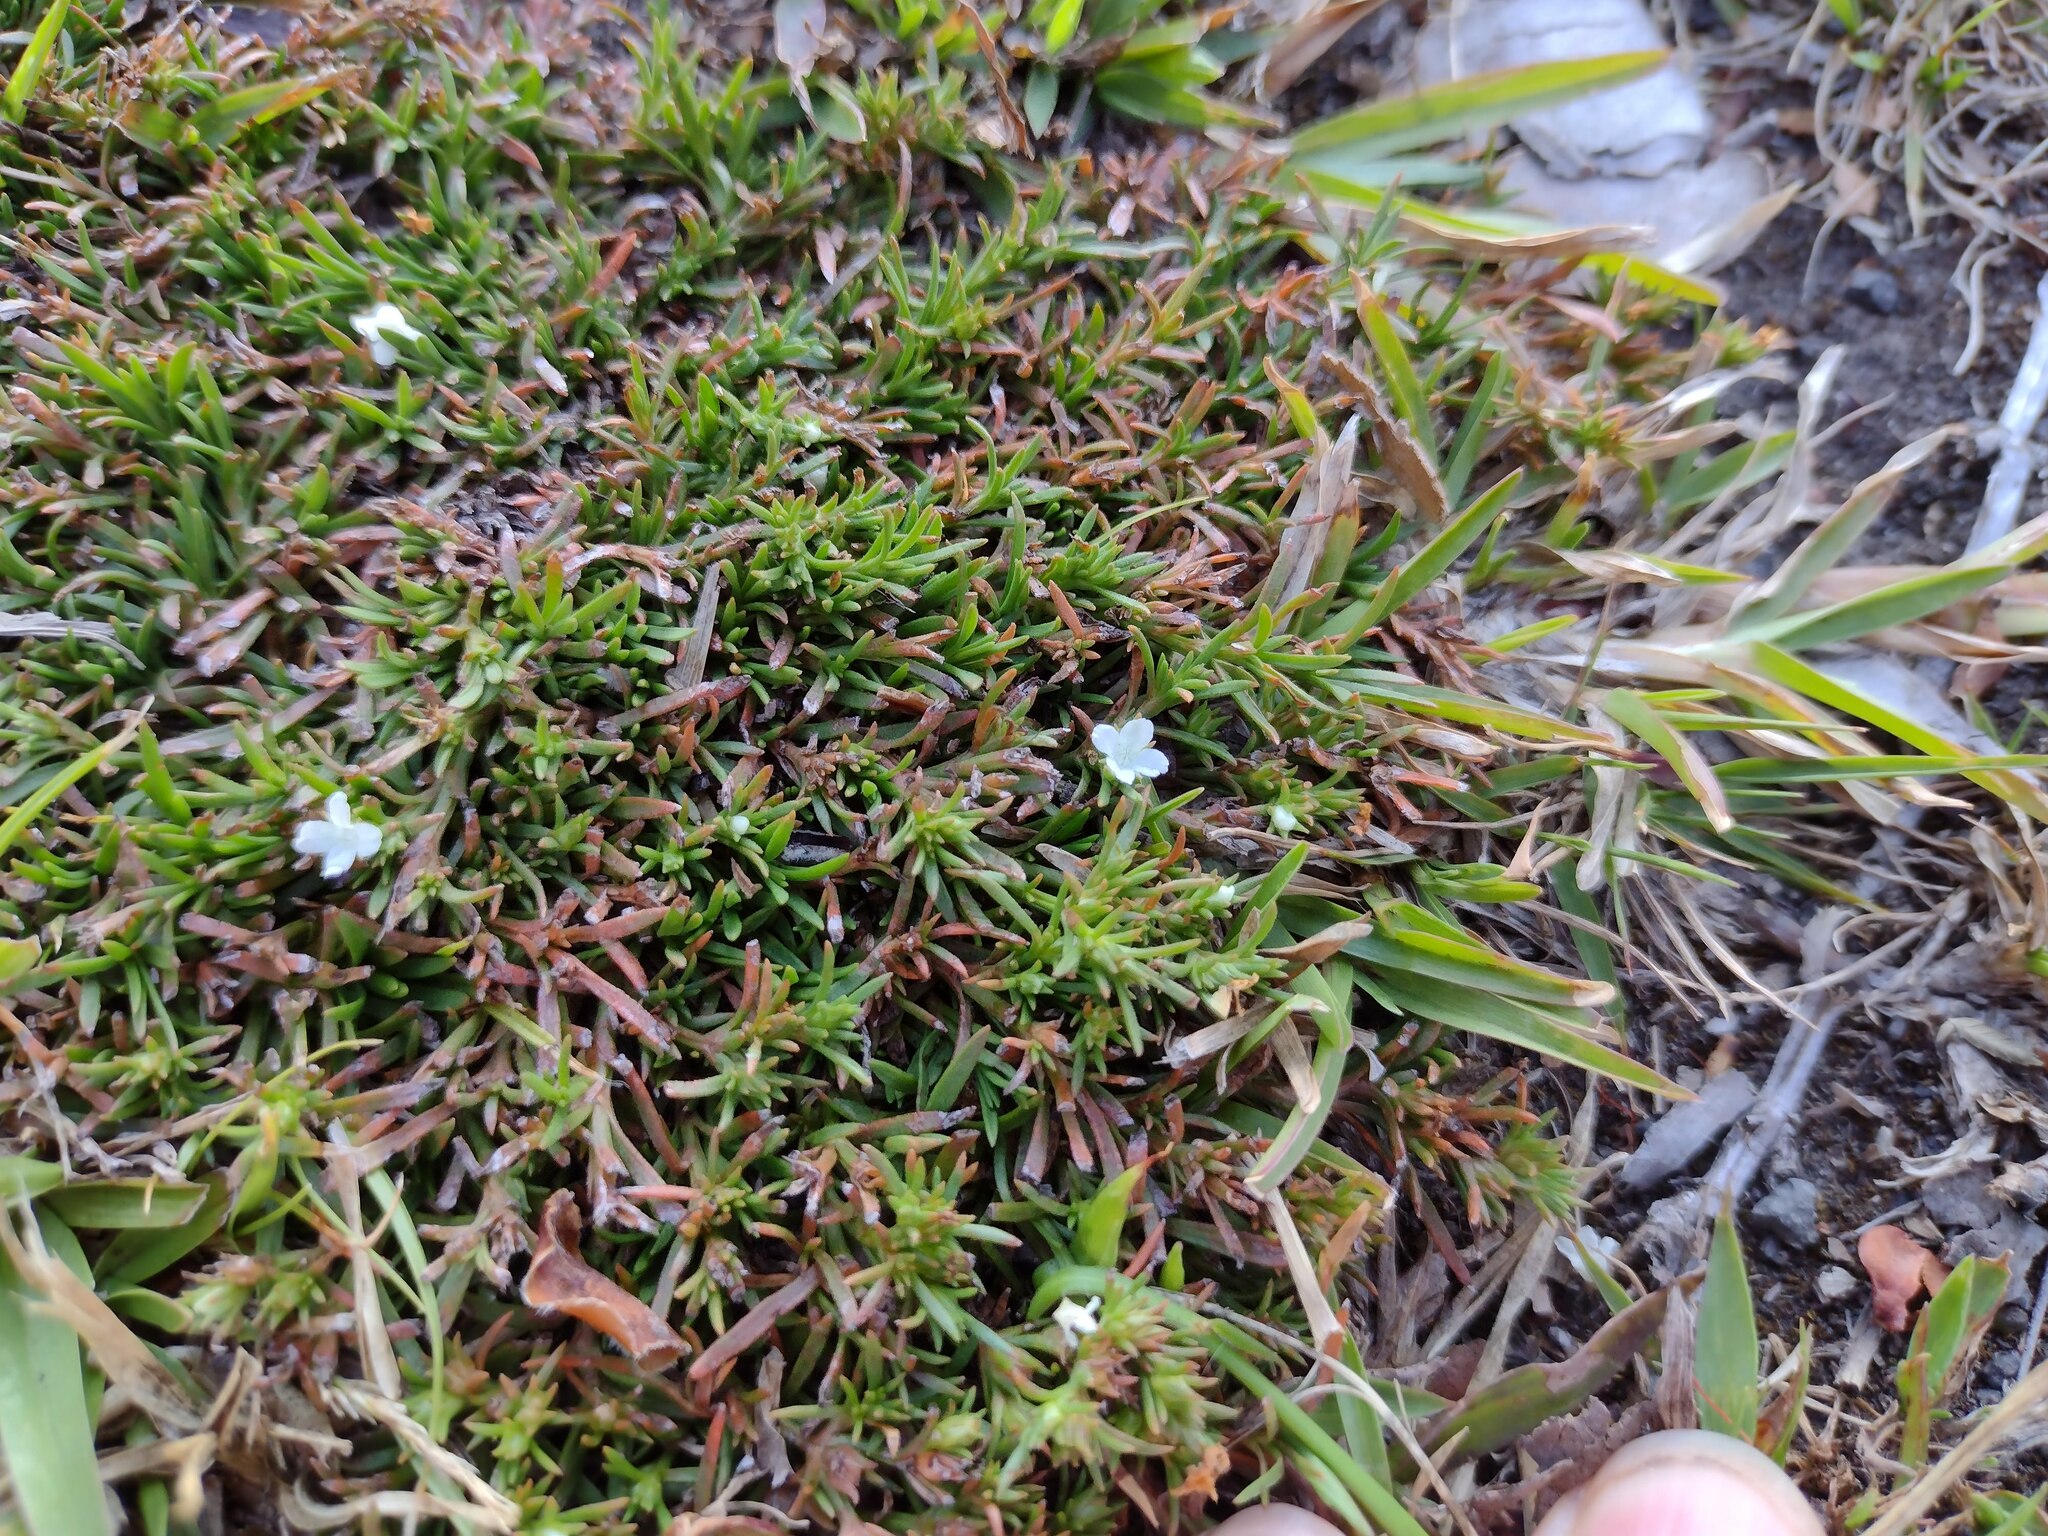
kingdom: Plantae
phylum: Tracheophyta
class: Magnoliopsida
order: Lamiales
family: Tetrachondraceae
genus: Polypremum
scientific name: Polypremum procumbens
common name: Juniper-leaf
